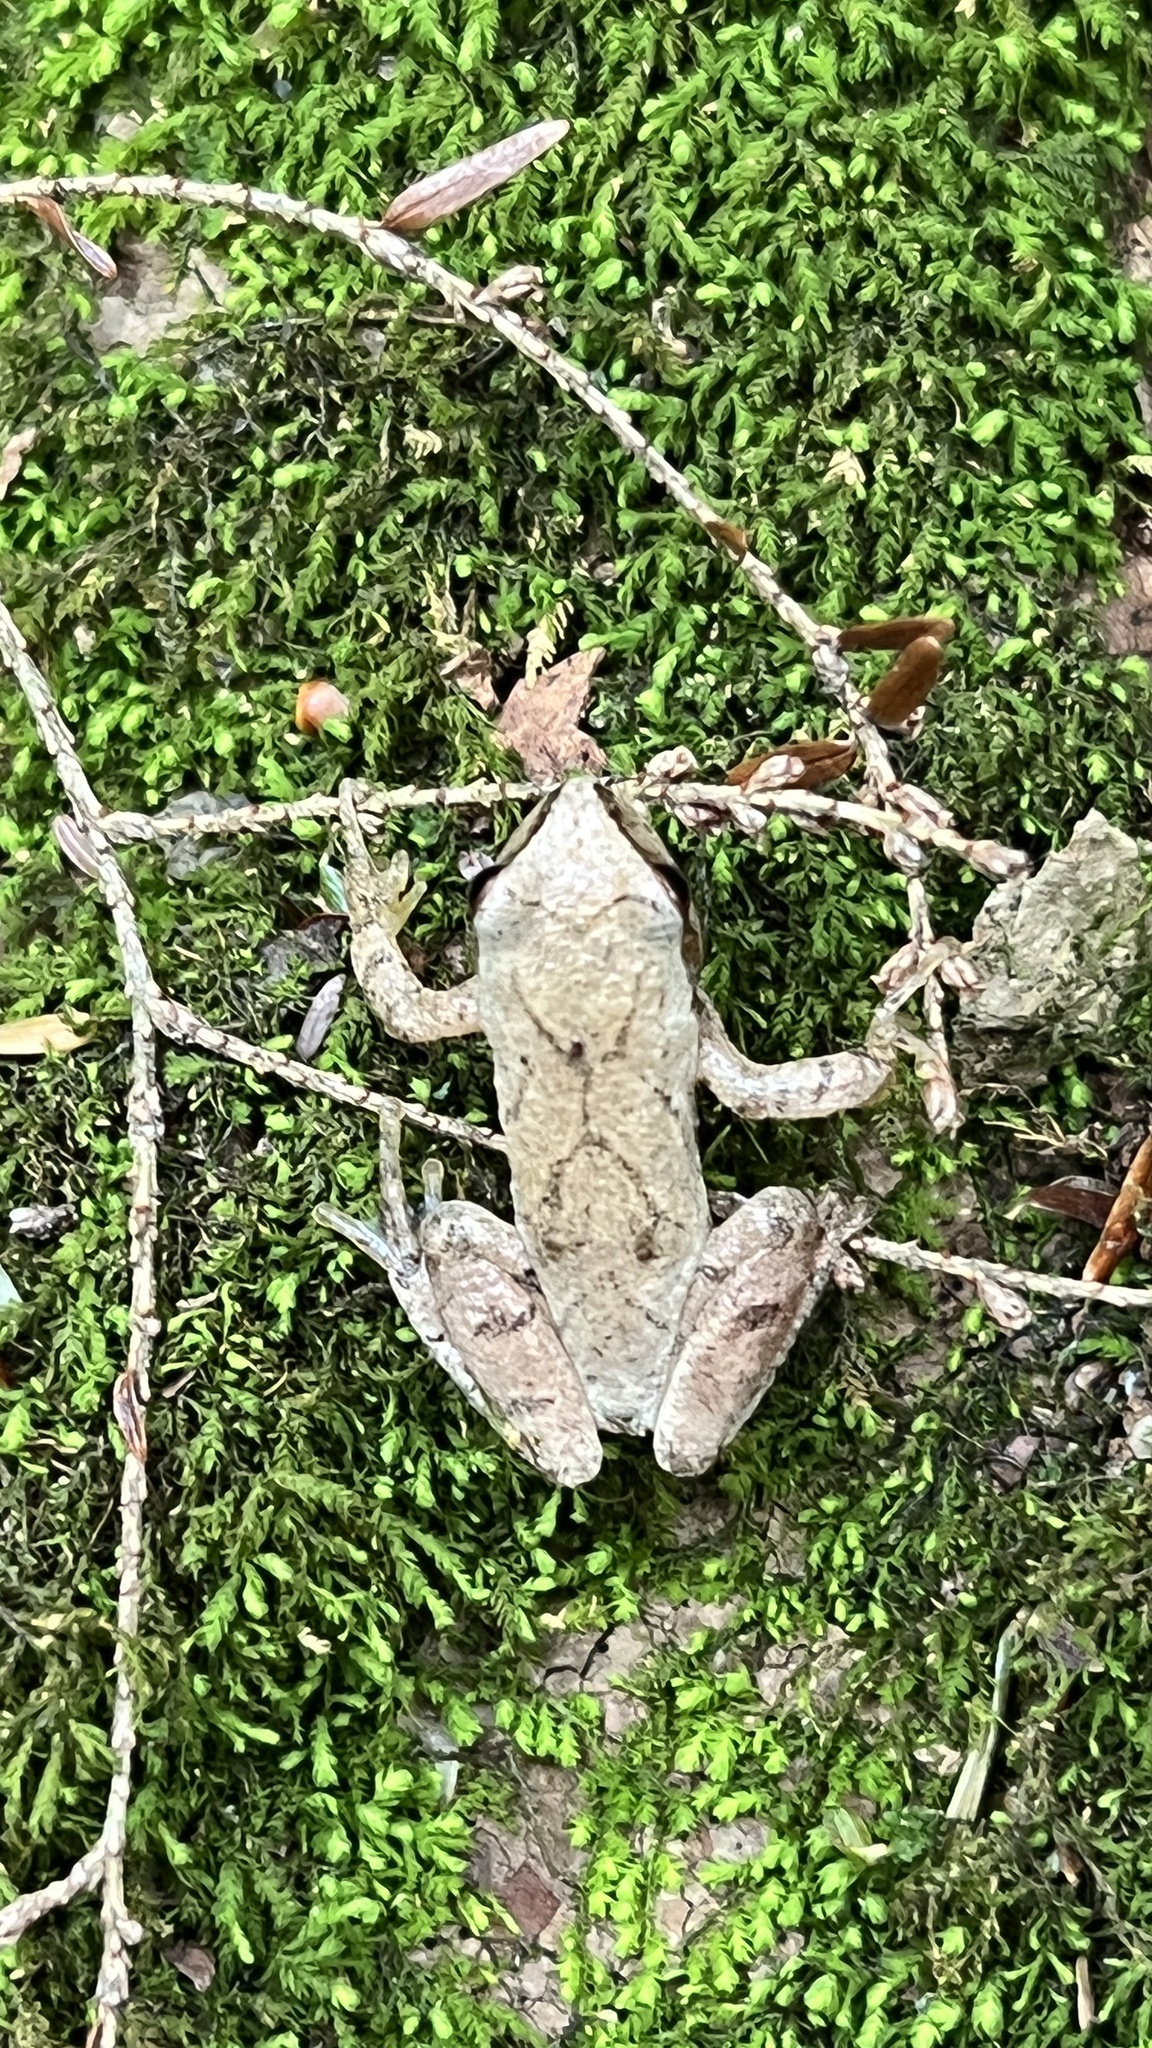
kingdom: Animalia
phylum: Chordata
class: Amphibia
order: Anura
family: Hylidae
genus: Pseudacris
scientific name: Pseudacris crucifer
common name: Spring peeper
